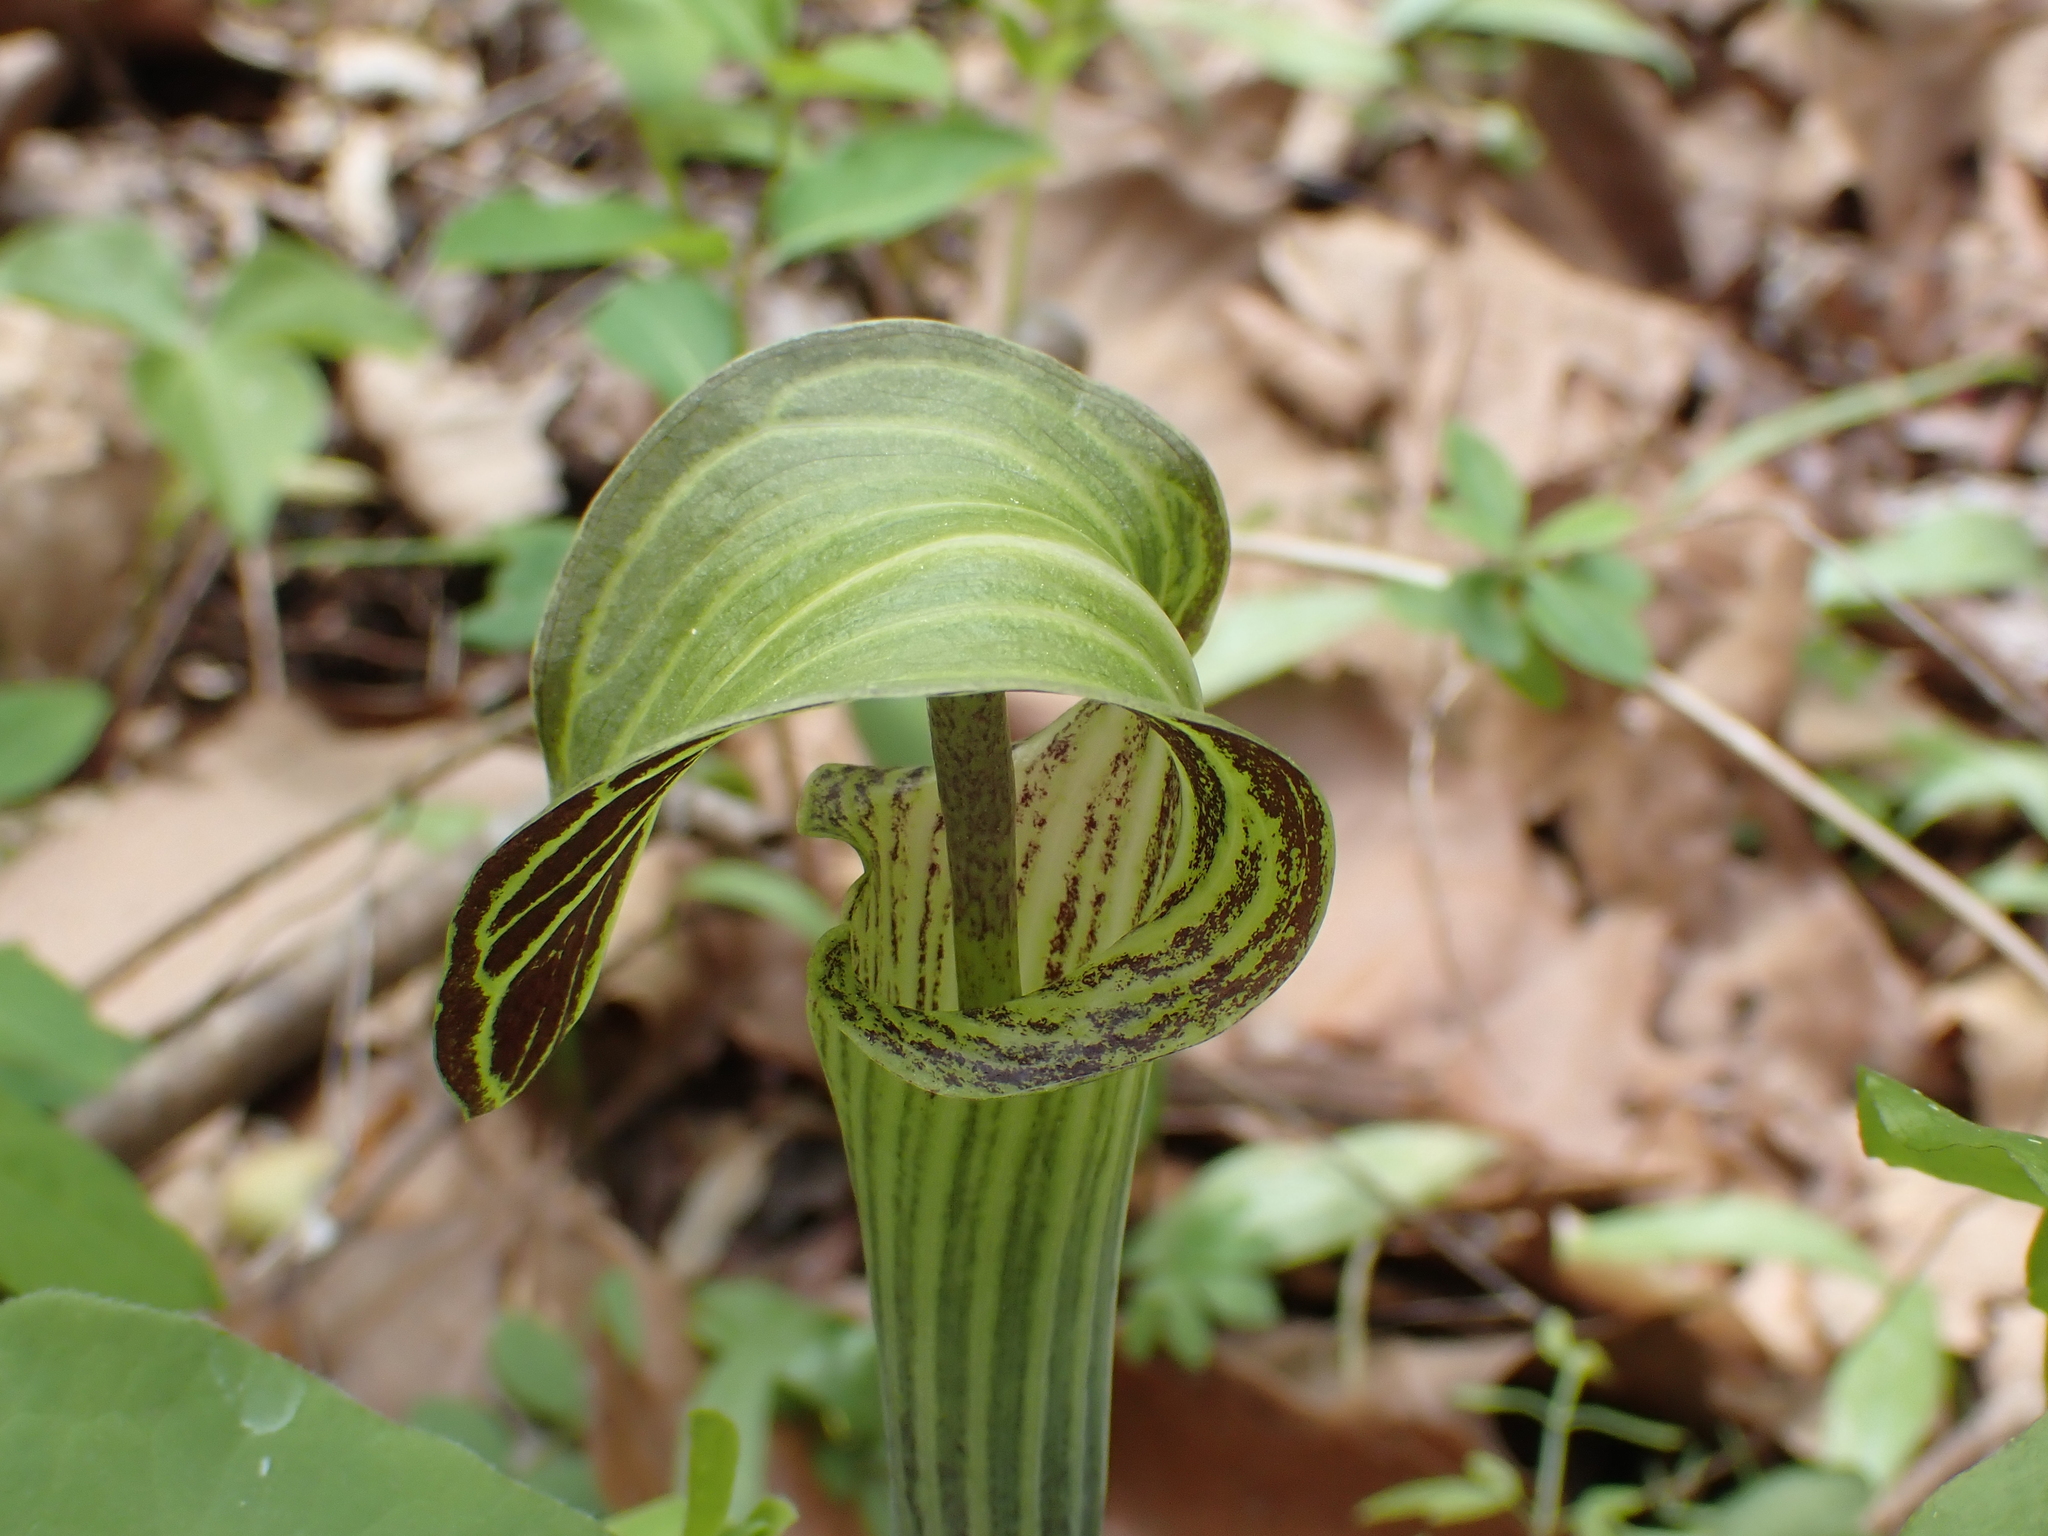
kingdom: Plantae
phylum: Tracheophyta
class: Liliopsida
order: Alismatales
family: Araceae
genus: Arisaema
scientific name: Arisaema triphyllum
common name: Jack-in-the-pulpit
